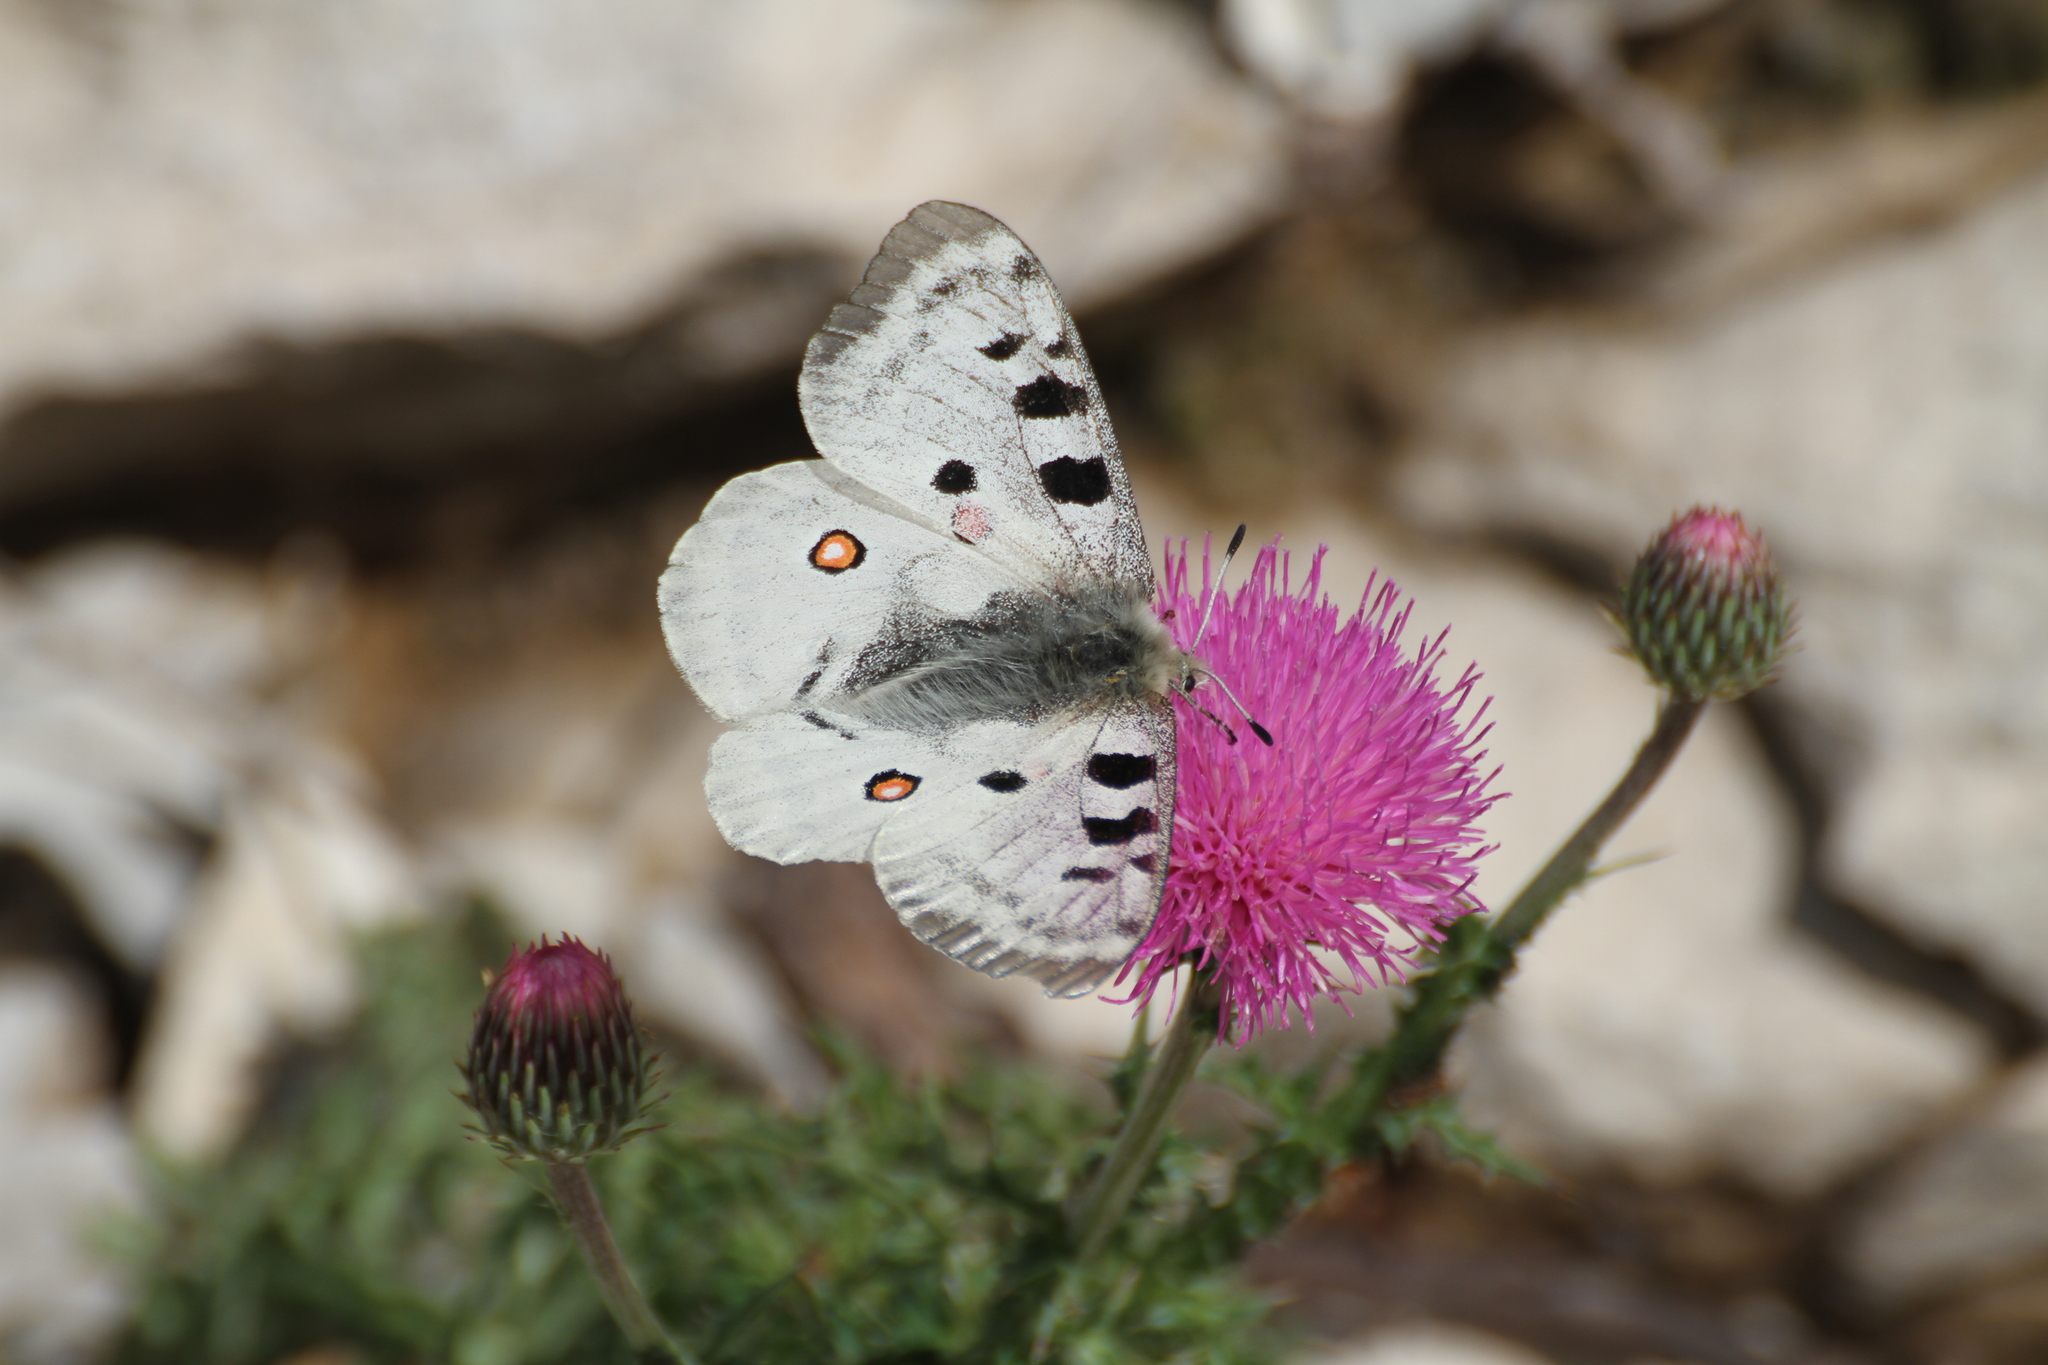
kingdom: Animalia
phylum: Arthropoda
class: Insecta
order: Lepidoptera
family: Papilionidae
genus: Parnassius
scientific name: Parnassius apollo
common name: Apollo
